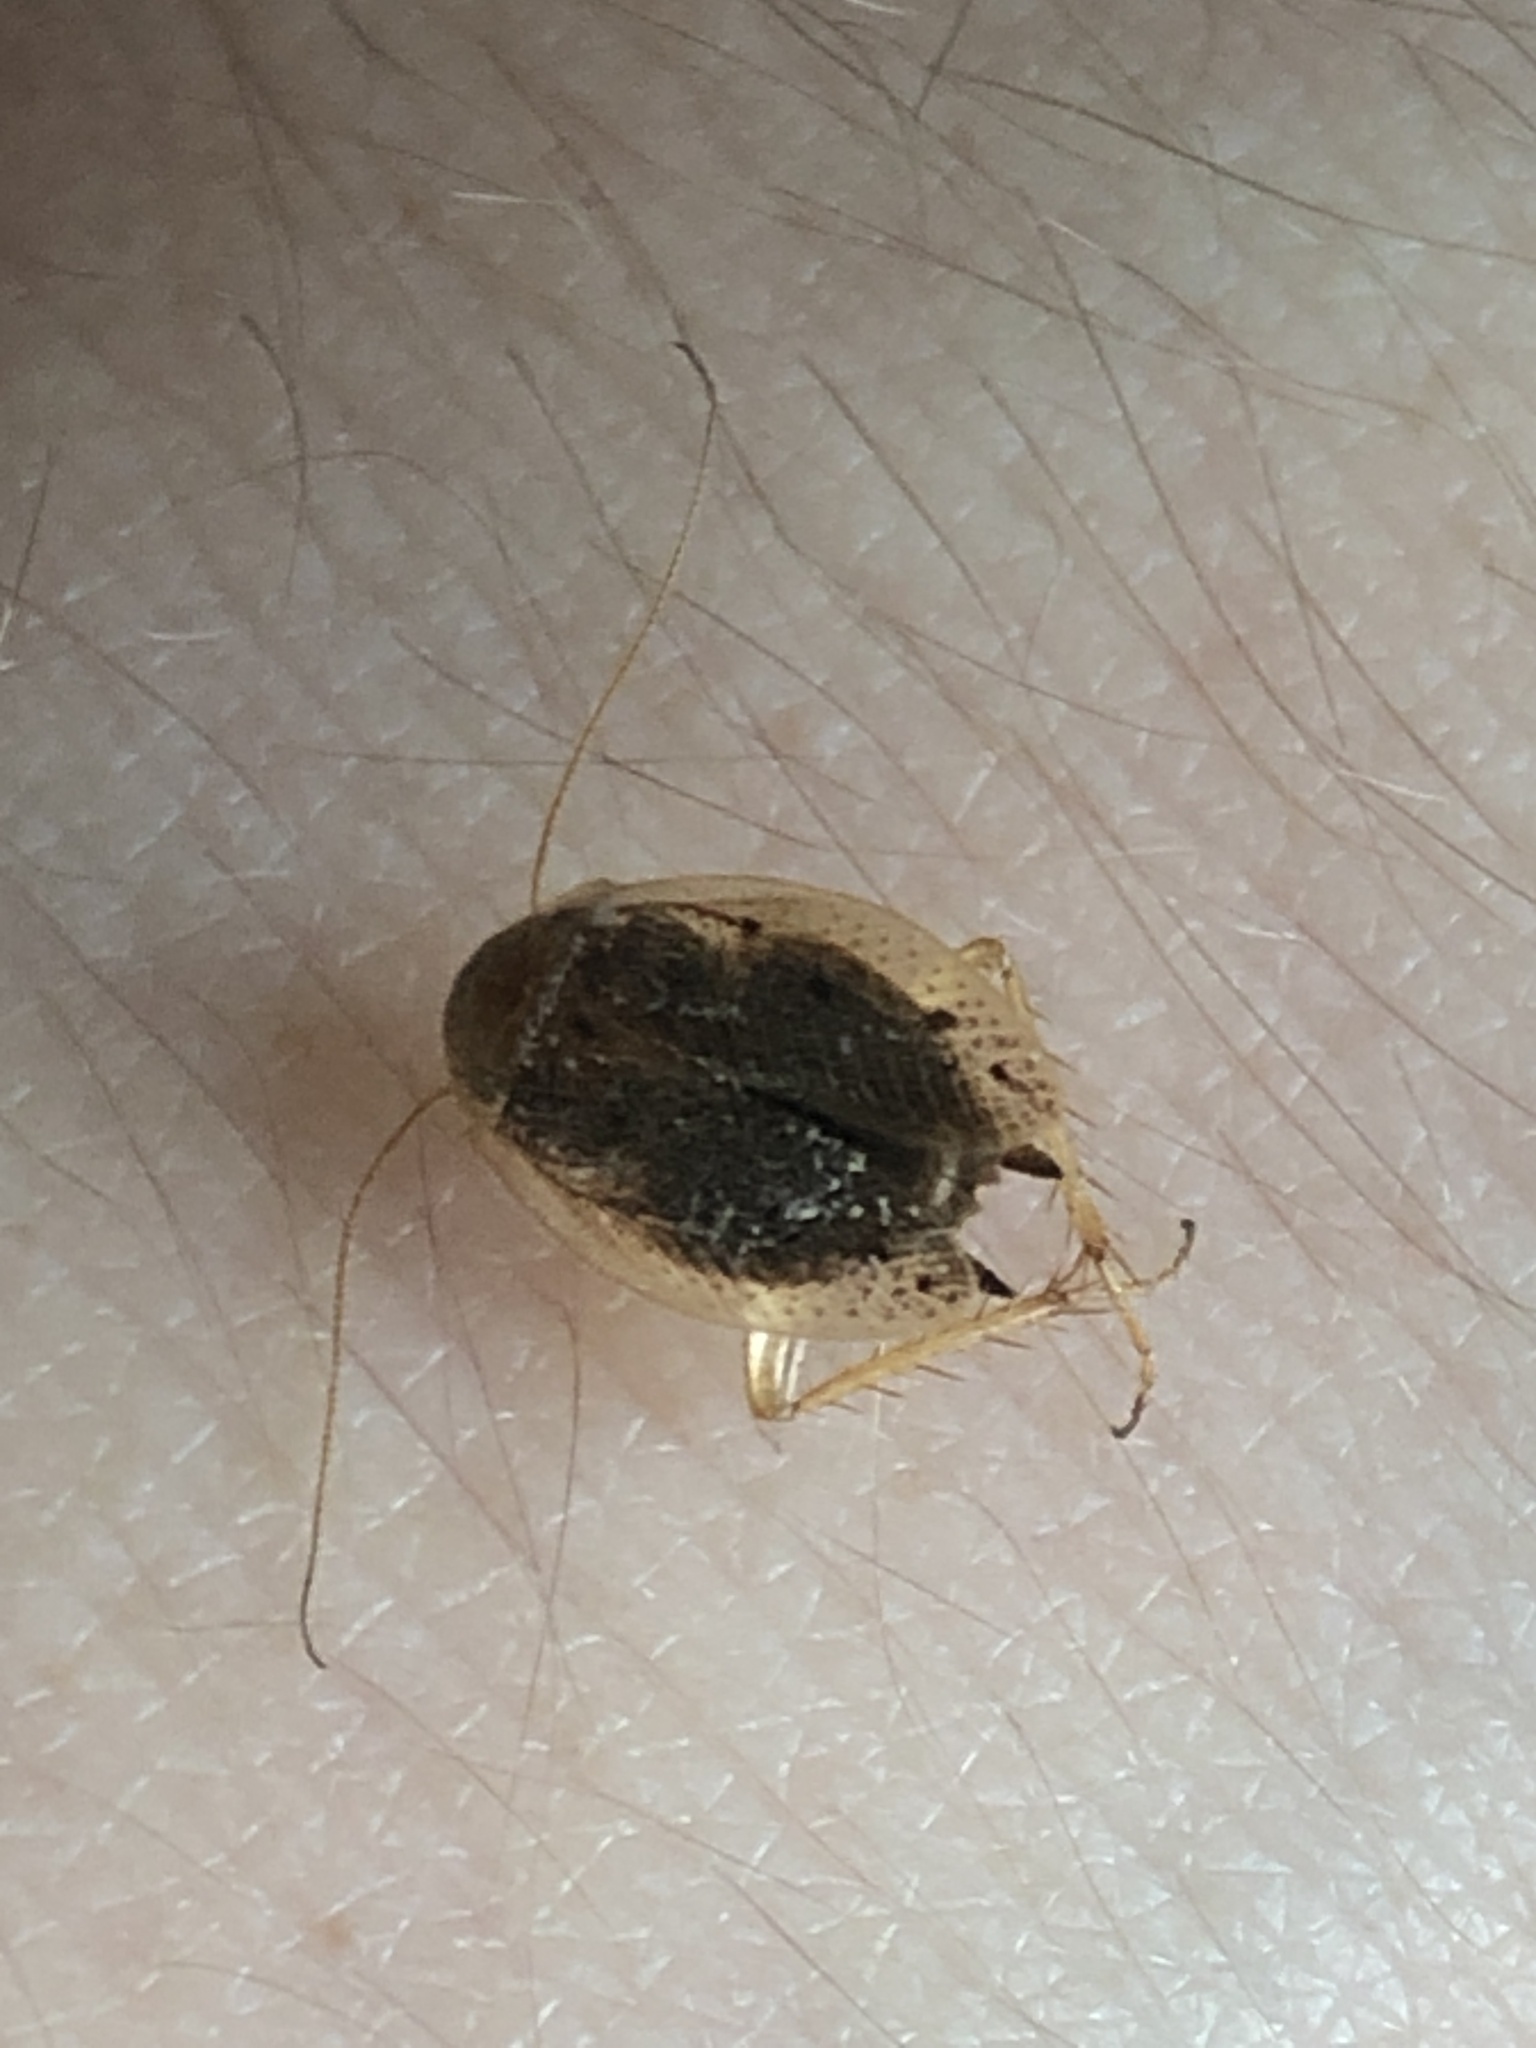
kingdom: Animalia
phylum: Arthropoda
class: Insecta
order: Blattodea
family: Ectobiidae
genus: Ectobius
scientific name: Ectobius lapponicus
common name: Dusky cockroach
